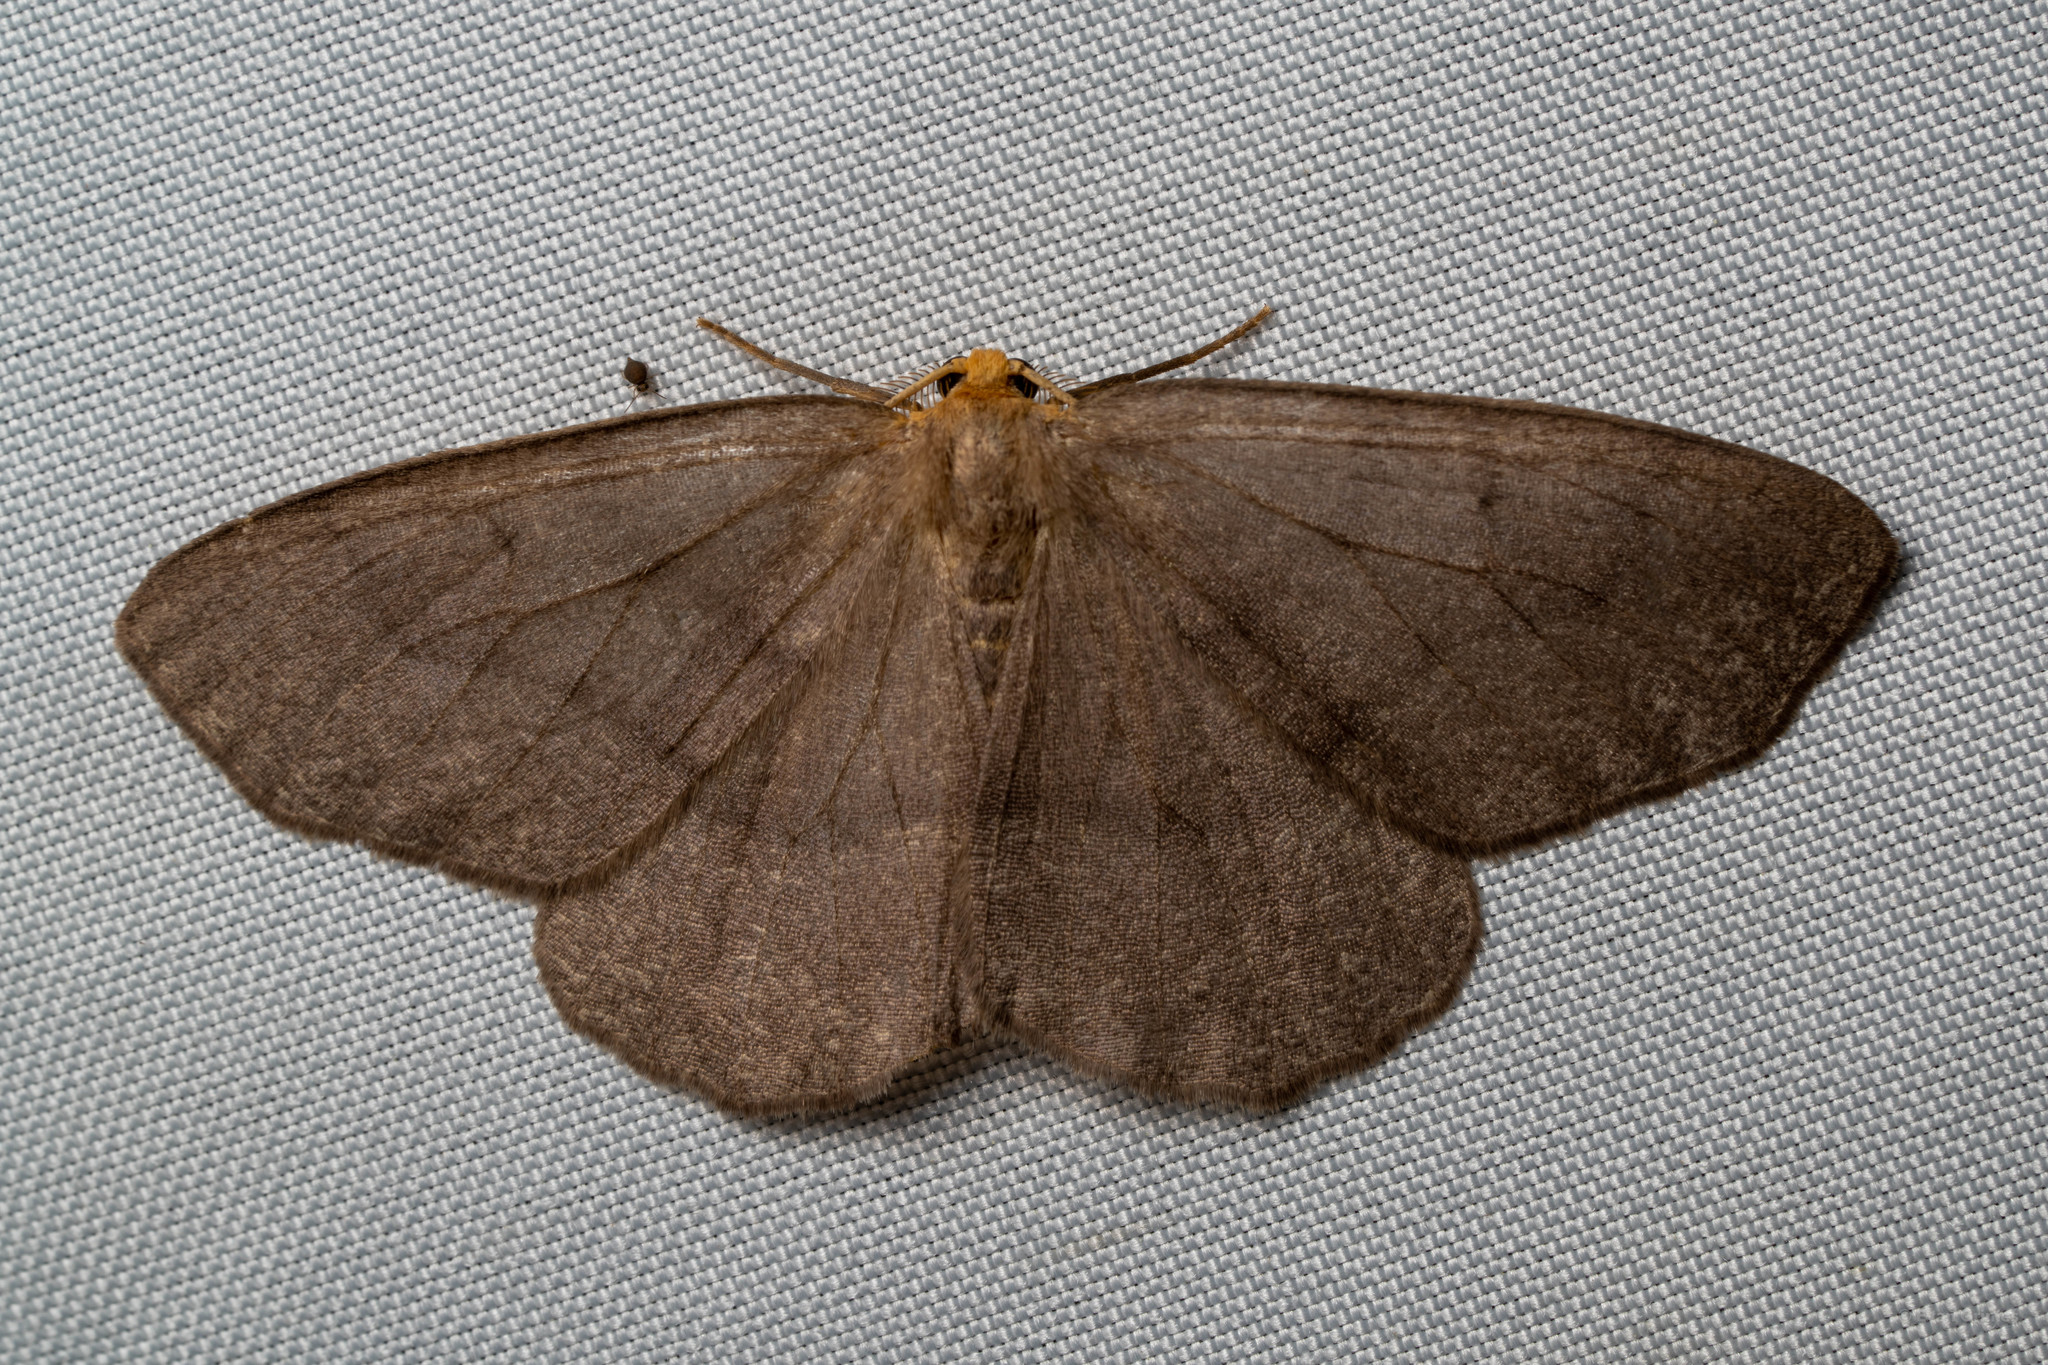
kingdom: Animalia
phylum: Arthropoda
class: Insecta
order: Lepidoptera
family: Geometridae
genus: Lambdina
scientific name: Lambdina pellucidaria
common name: Eastern pinelooper
